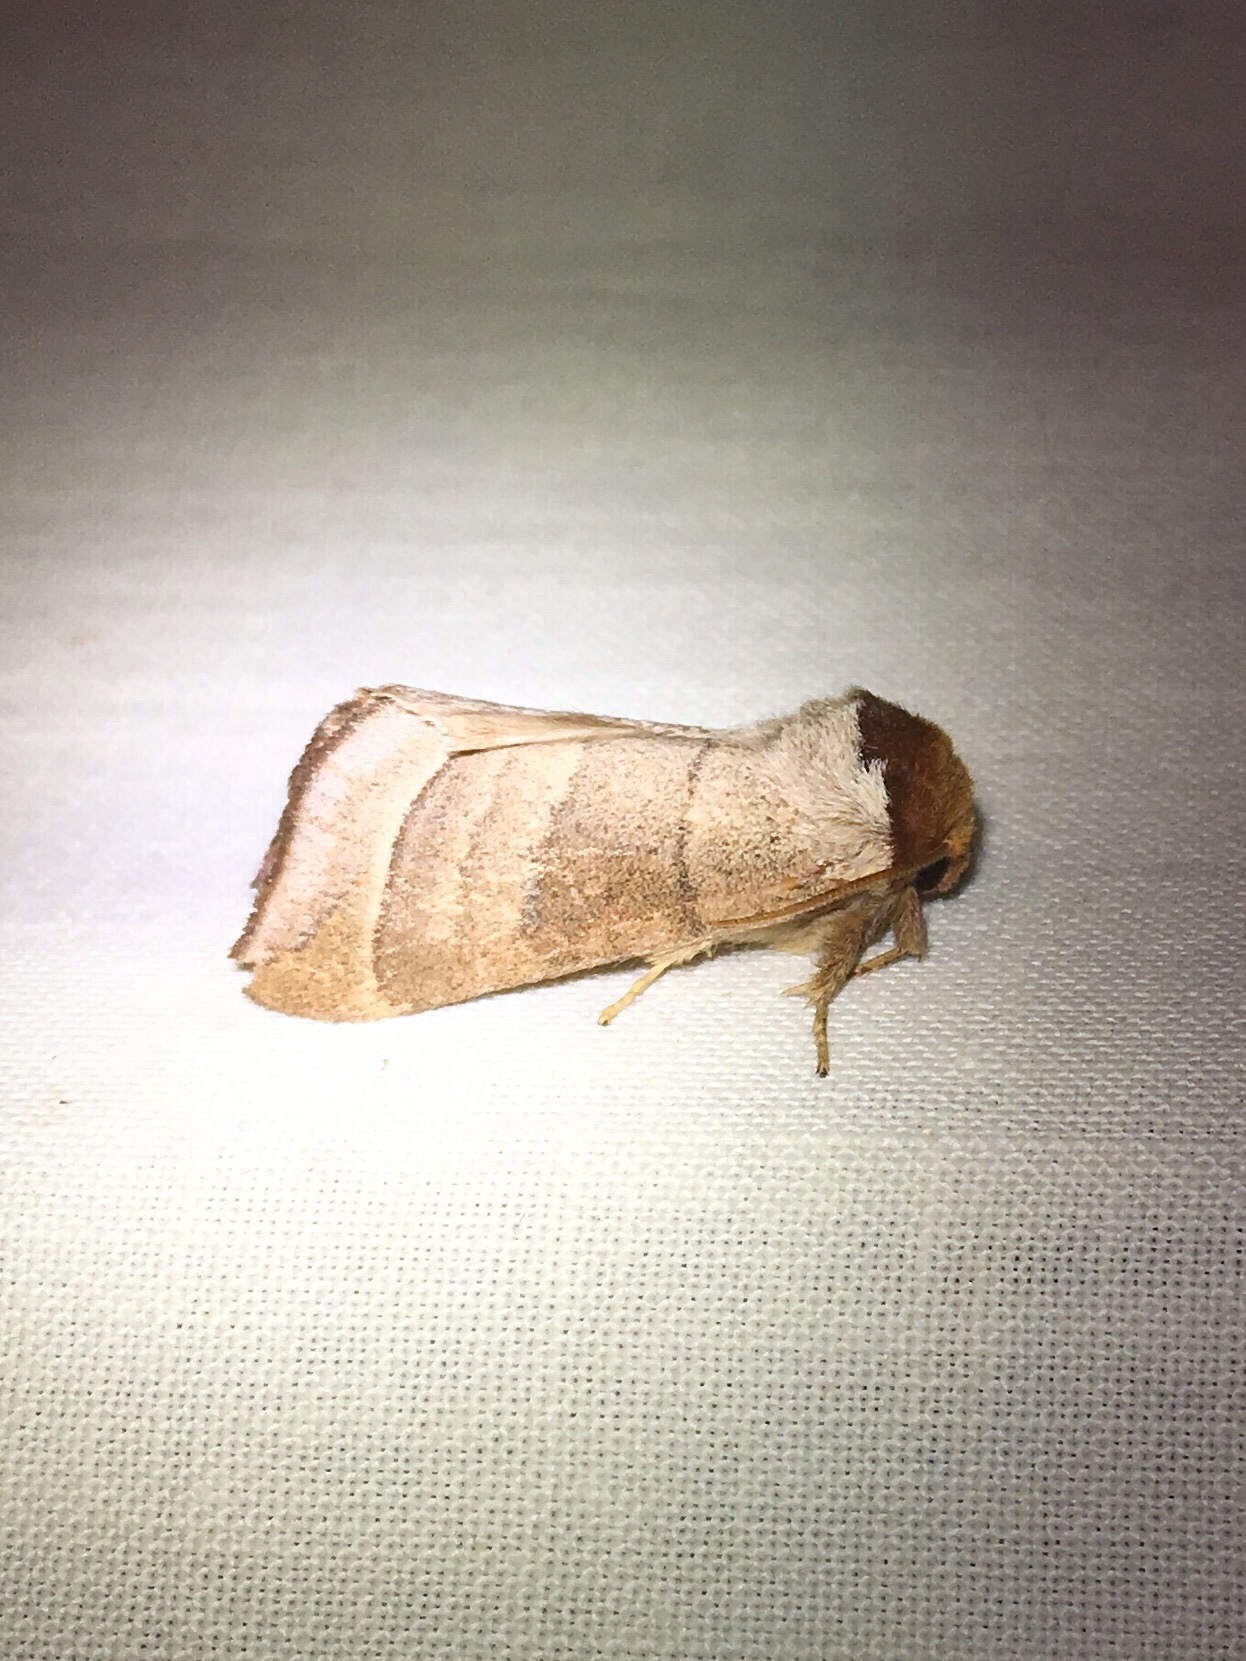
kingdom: Animalia
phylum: Arthropoda
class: Insecta
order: Lepidoptera
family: Notodontidae
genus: Datana
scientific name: Datana integerrima
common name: Walnut caterpillar
